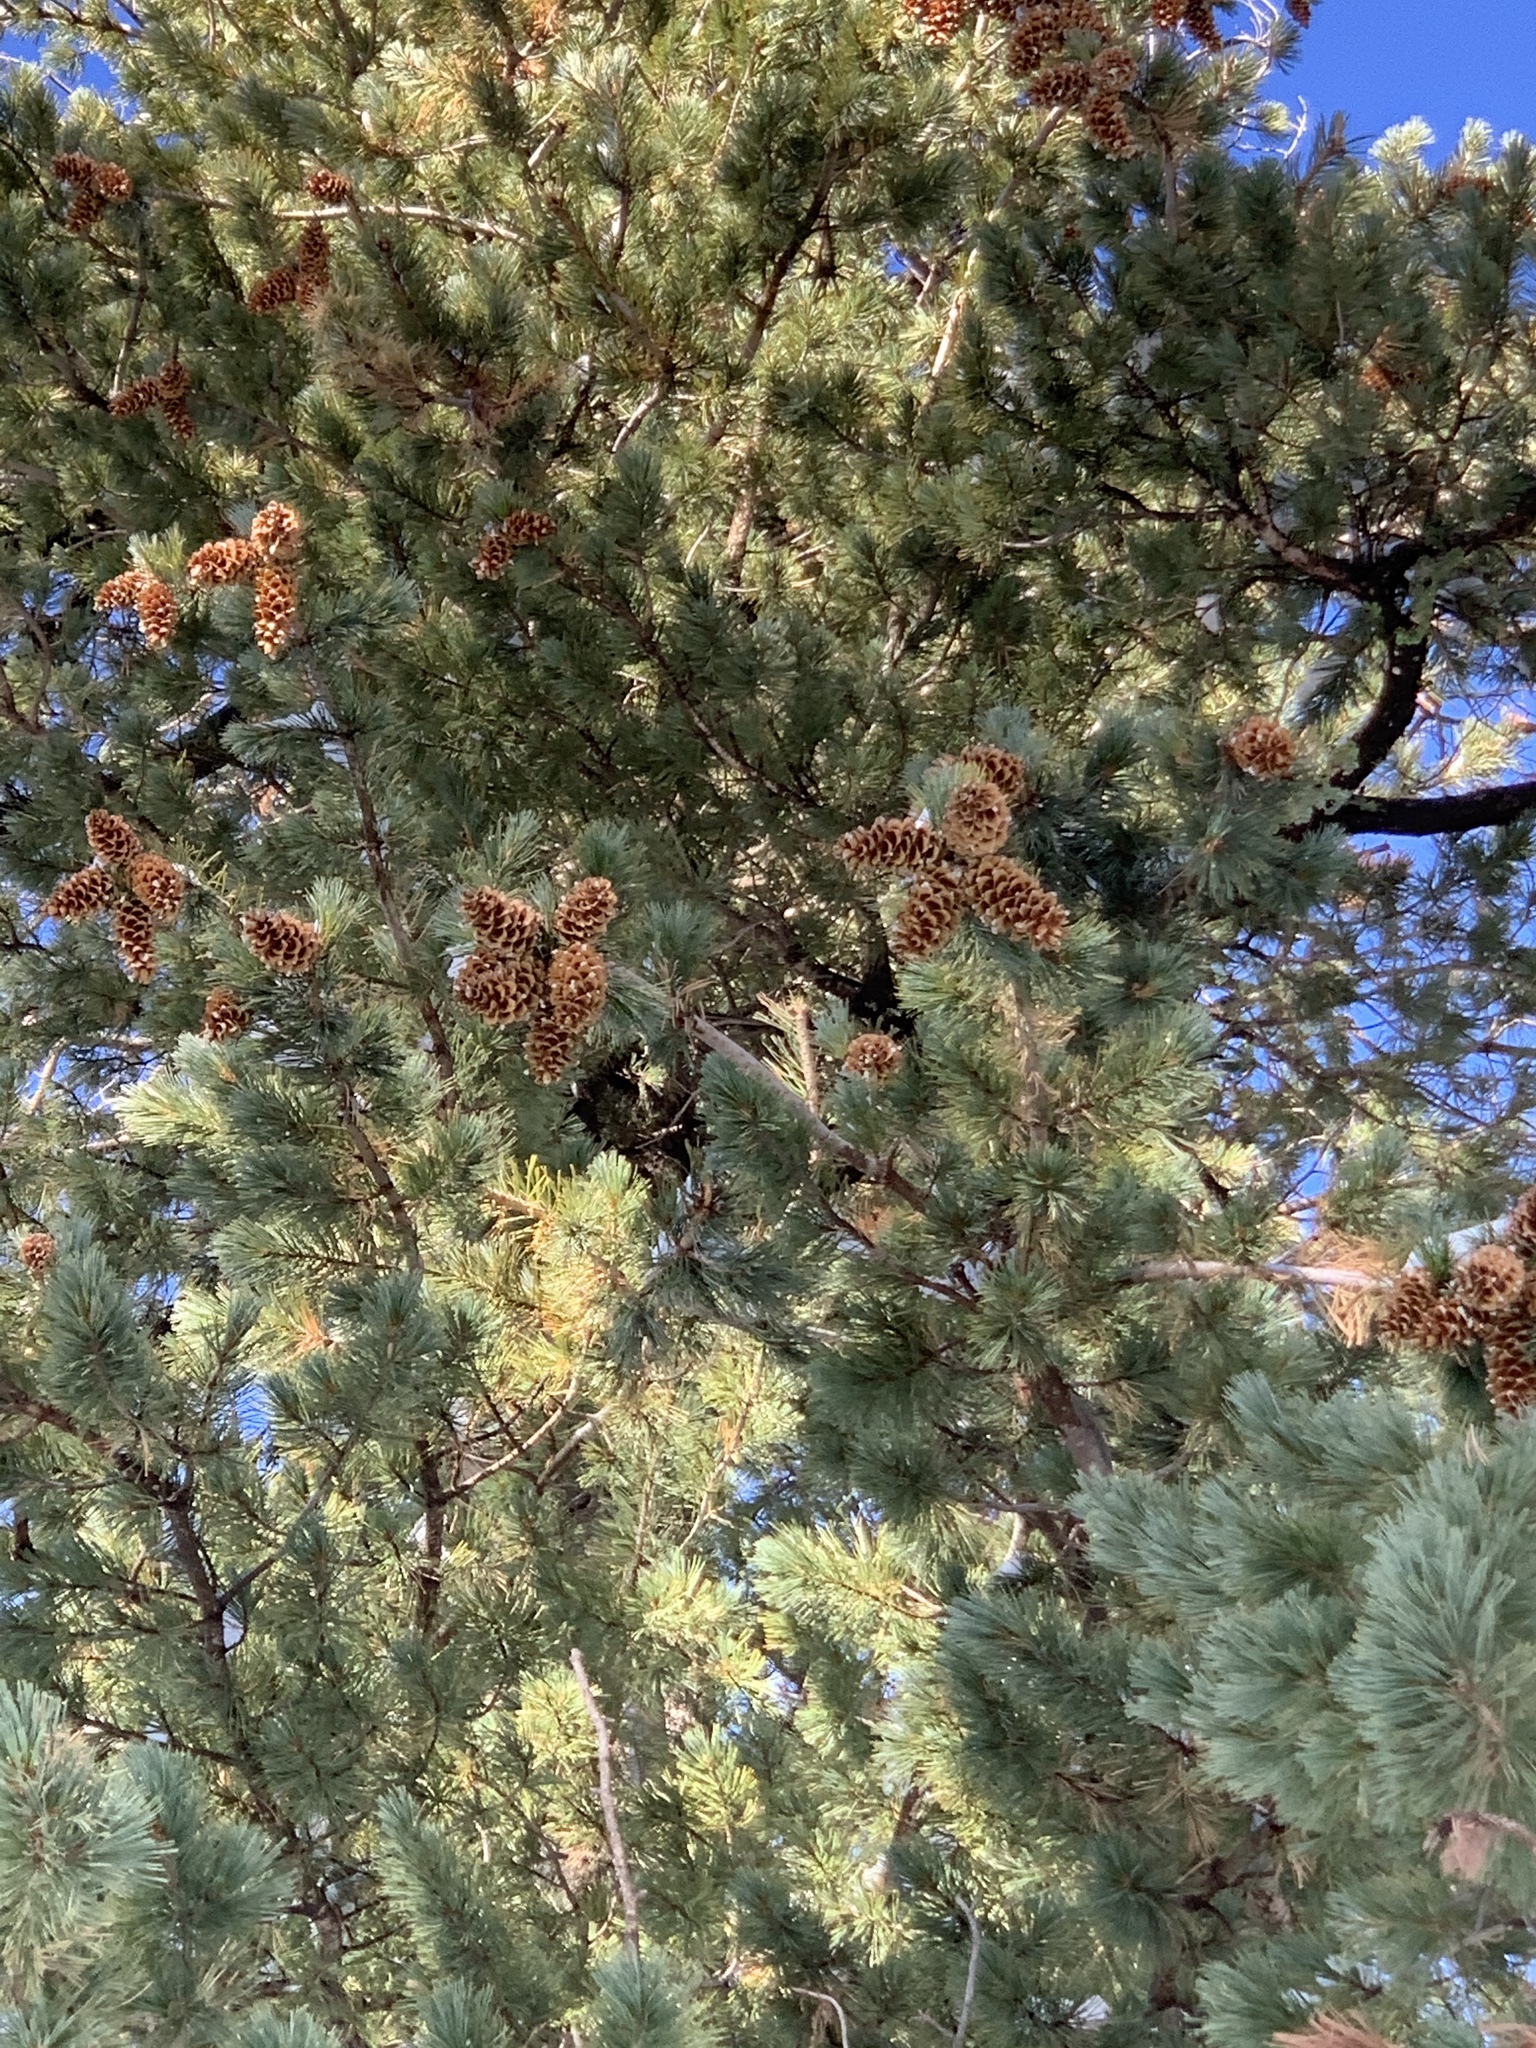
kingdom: Plantae
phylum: Tracheophyta
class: Pinopsida
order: Pinales
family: Pinaceae
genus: Pinus
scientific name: Pinus strobiformis
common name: Southwestern white pine
